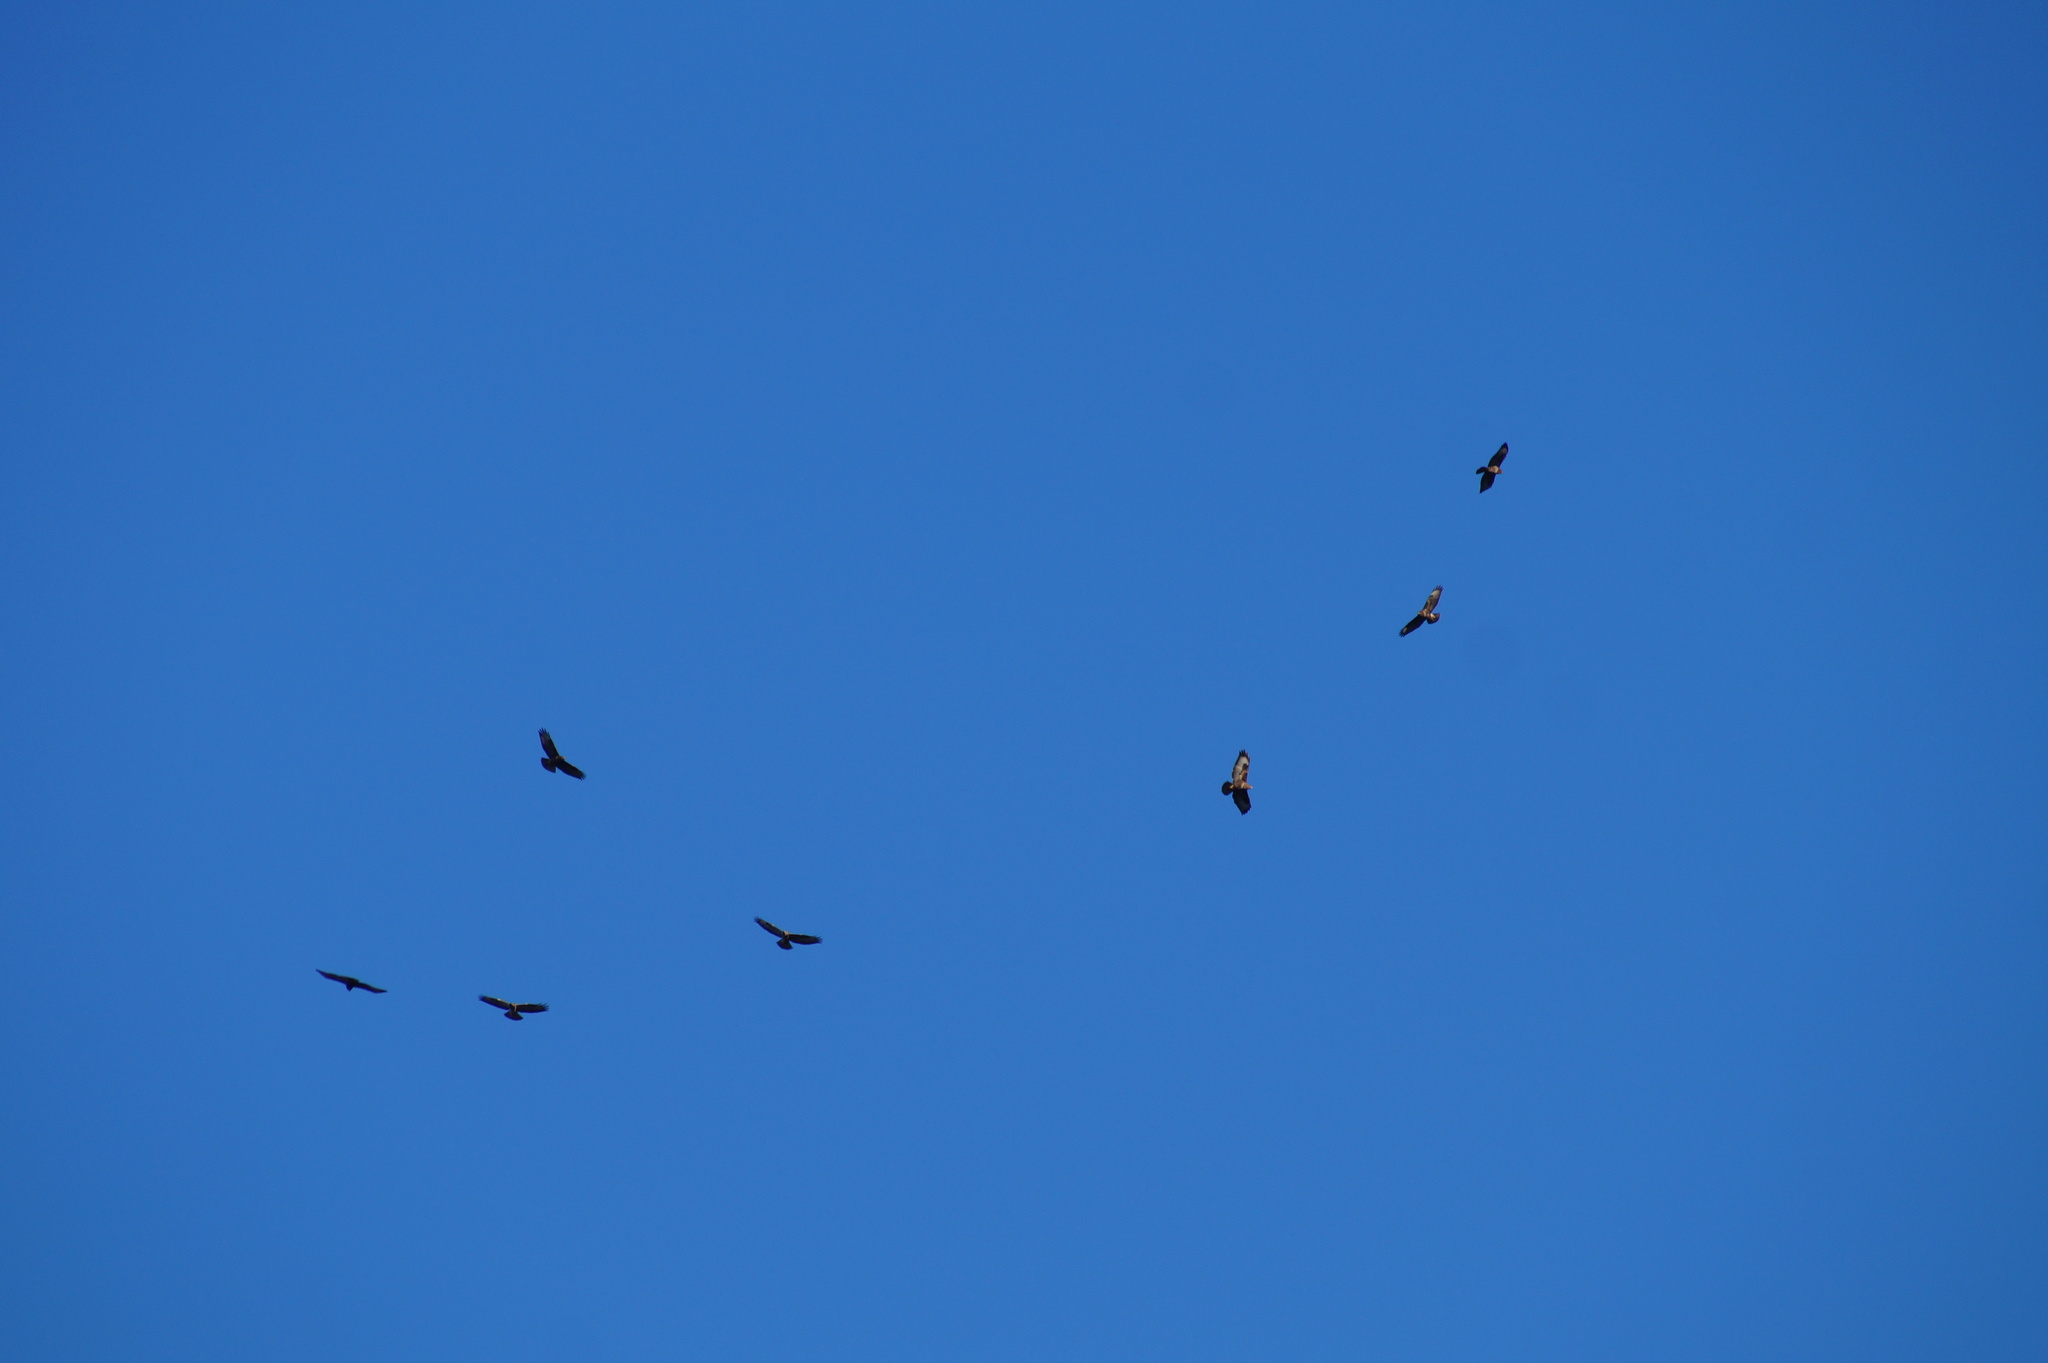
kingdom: Animalia
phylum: Chordata
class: Aves
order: Accipitriformes
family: Accipitridae
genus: Buteo
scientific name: Buteo buteo
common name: Common buzzard
